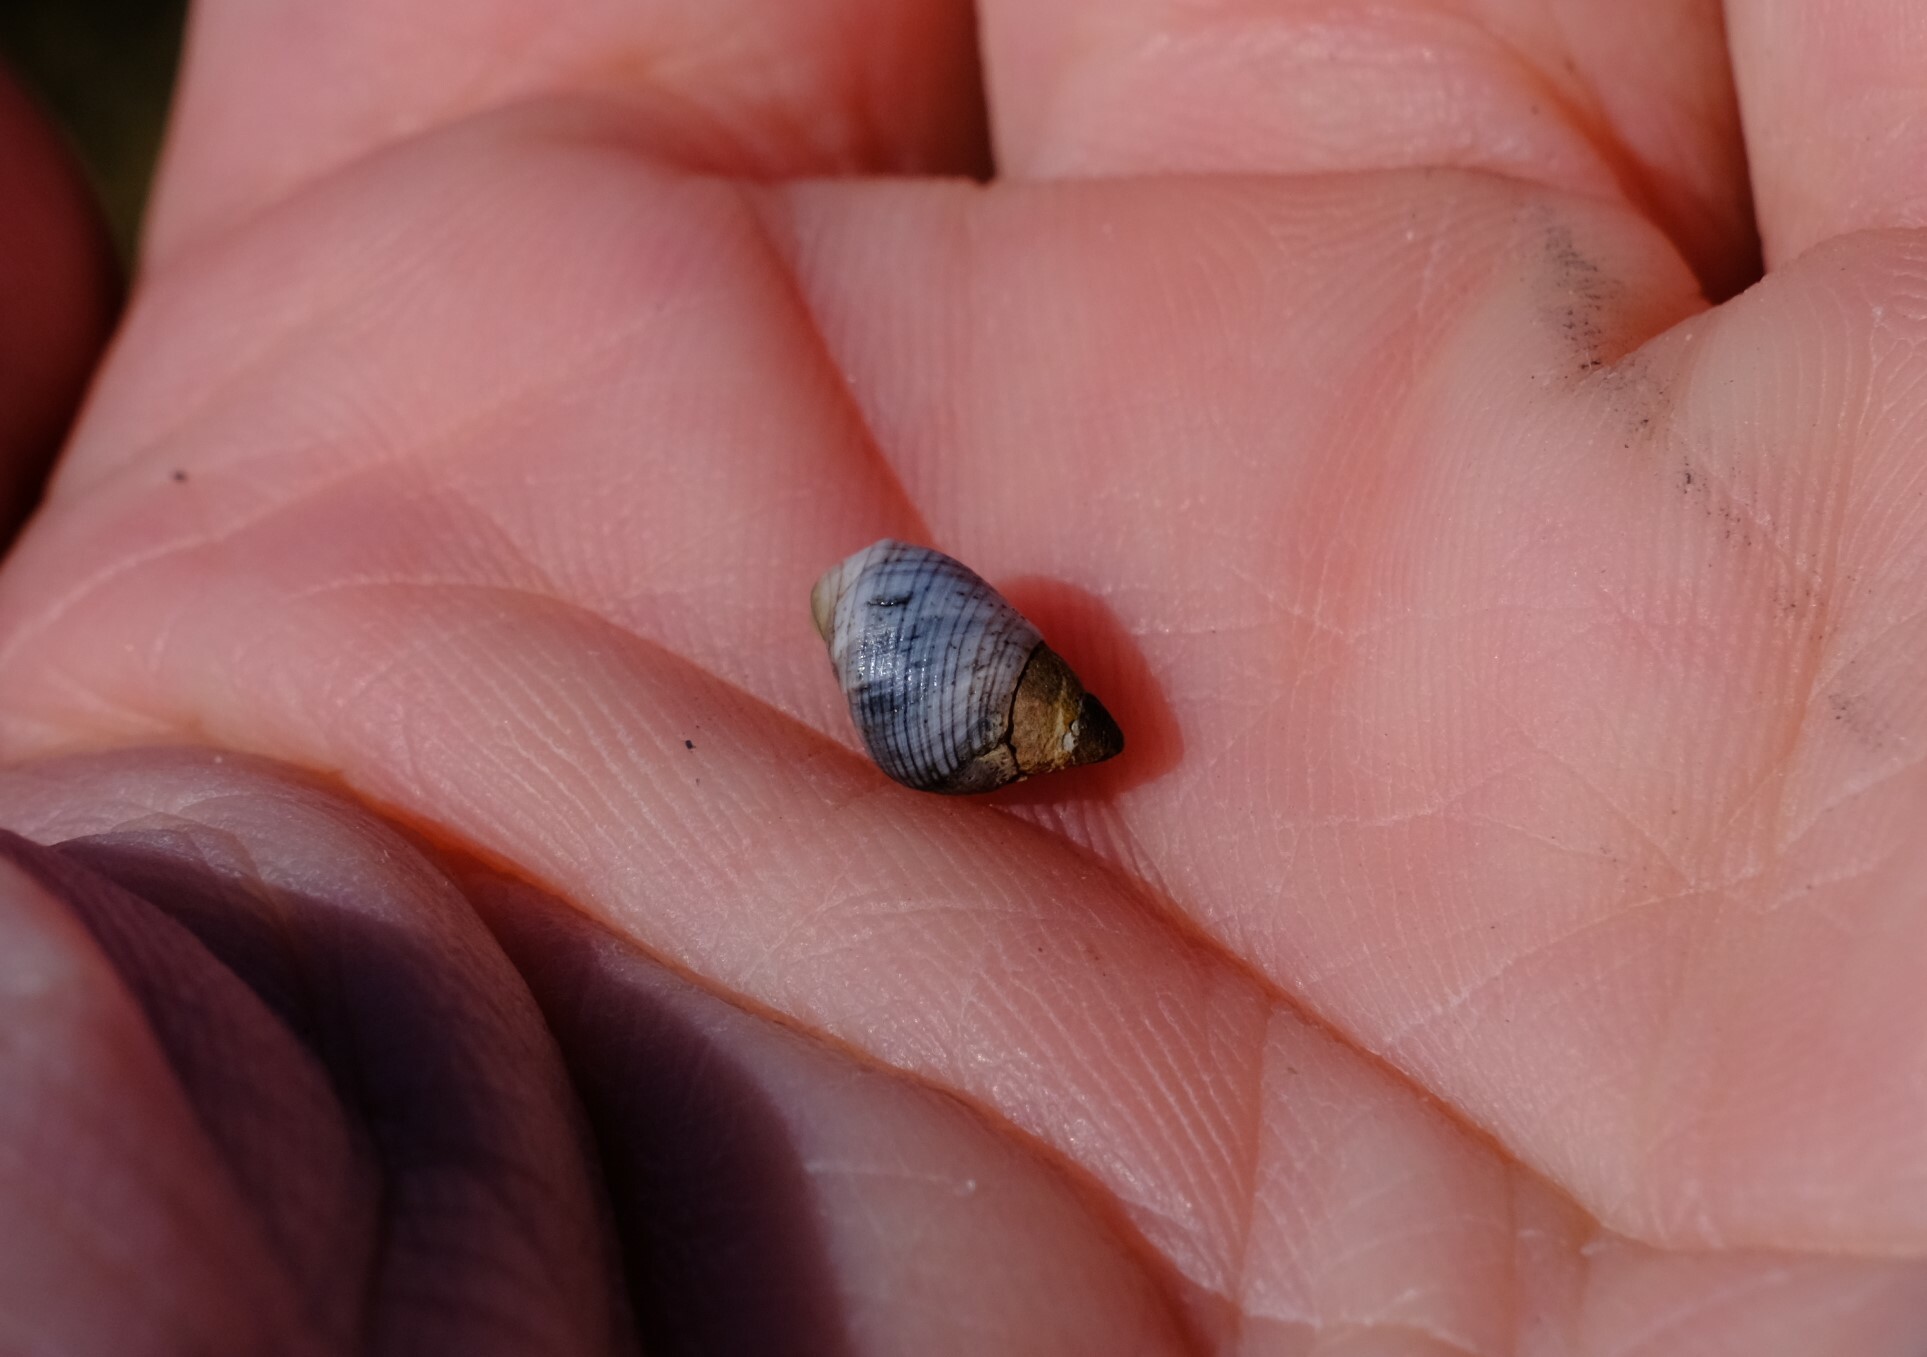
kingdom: Animalia
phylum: Mollusca
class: Gastropoda
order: Littorinimorpha
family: Littorinidae
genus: Austrolittorina
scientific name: Austrolittorina unifasciata
